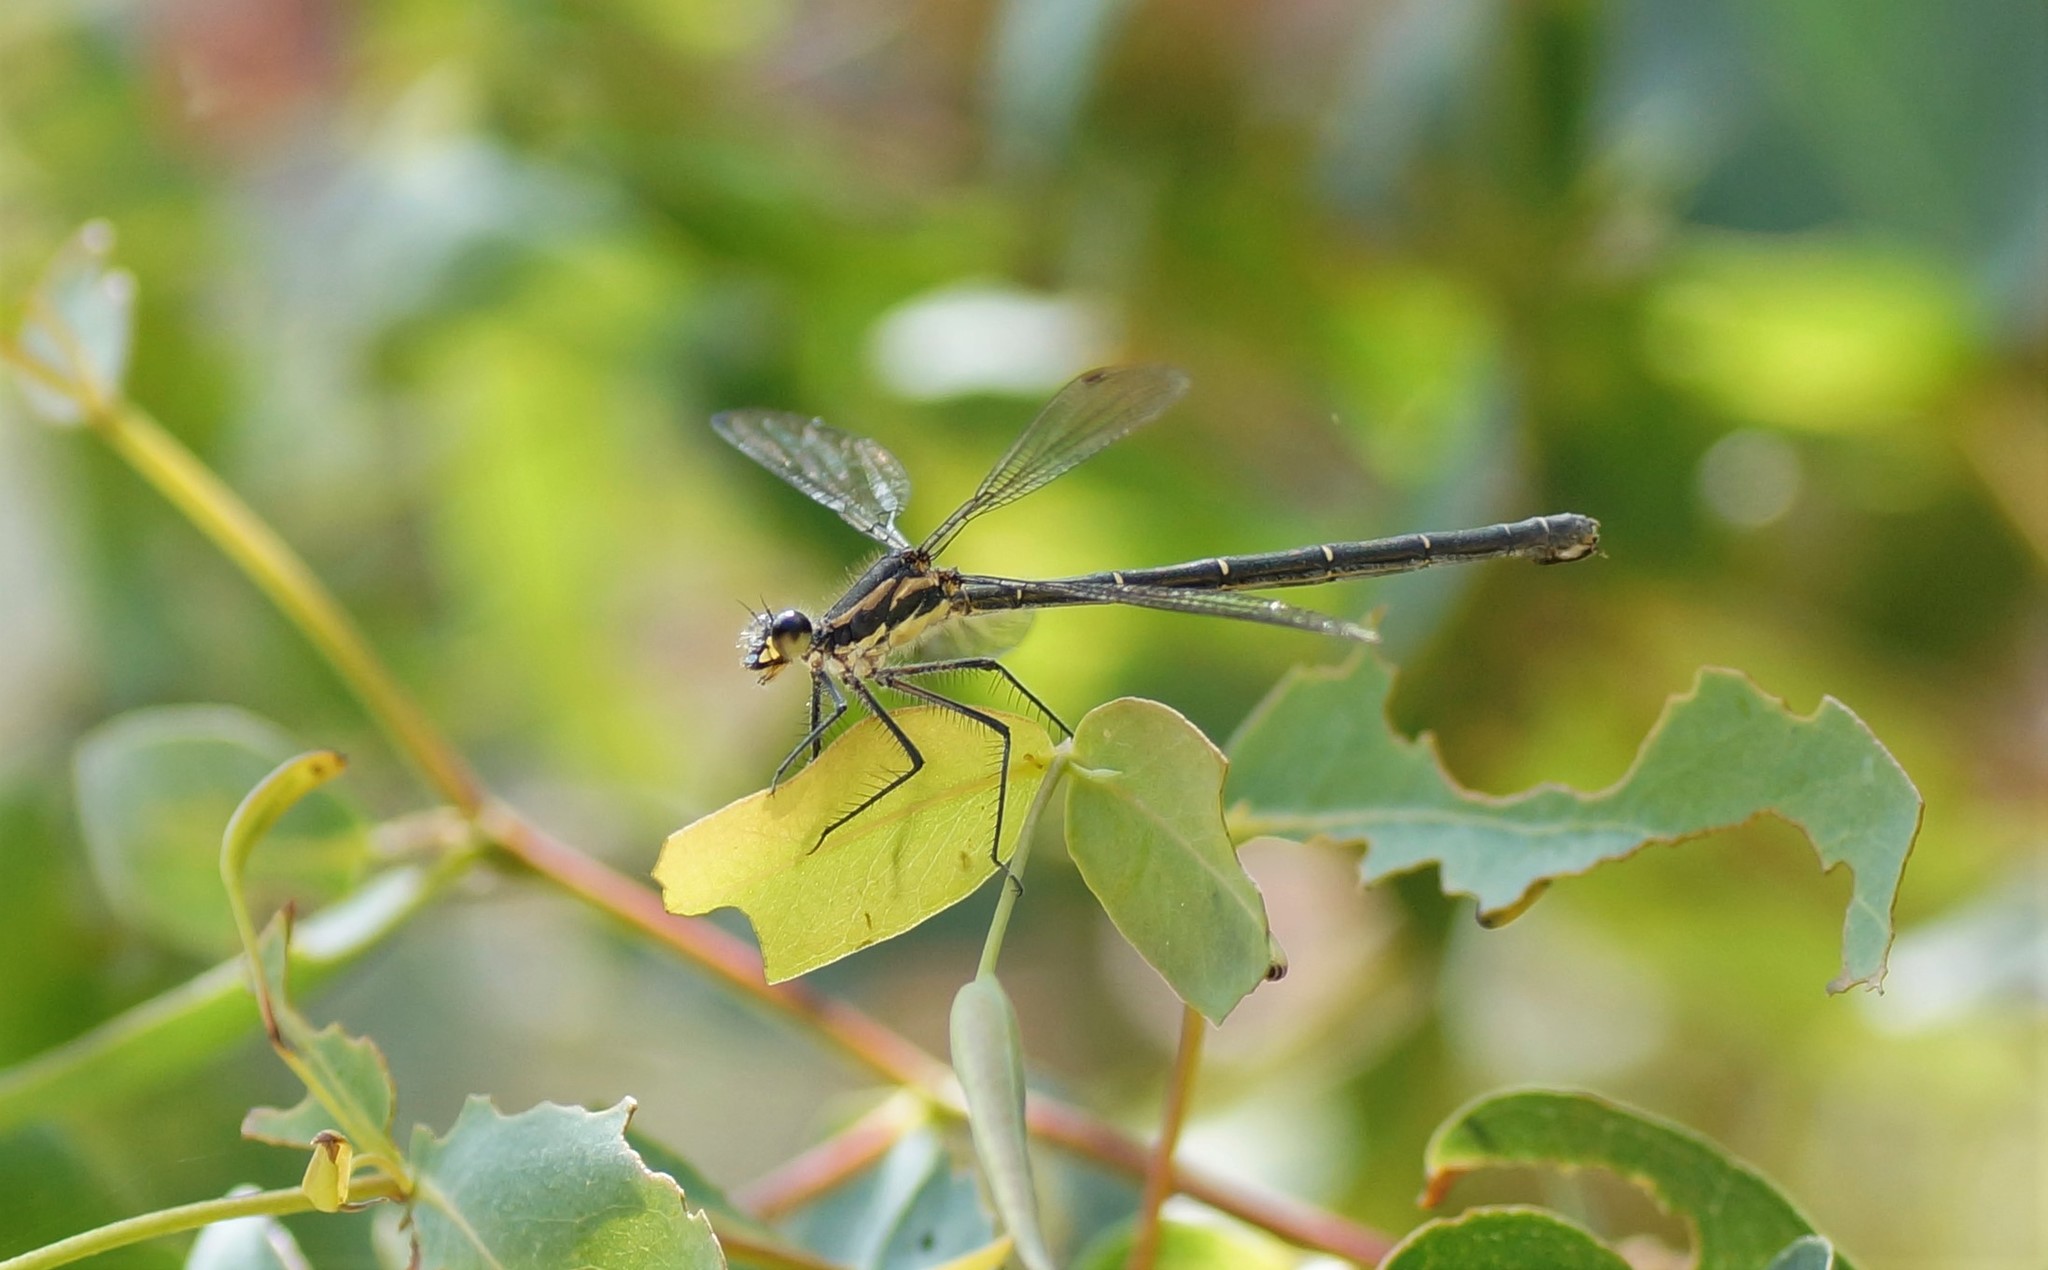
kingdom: Animalia
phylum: Arthropoda
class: Insecta
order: Odonata
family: Argiolestidae
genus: Austroargiolestes
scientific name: Austroargiolestes icteromelas
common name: Common flatwing
